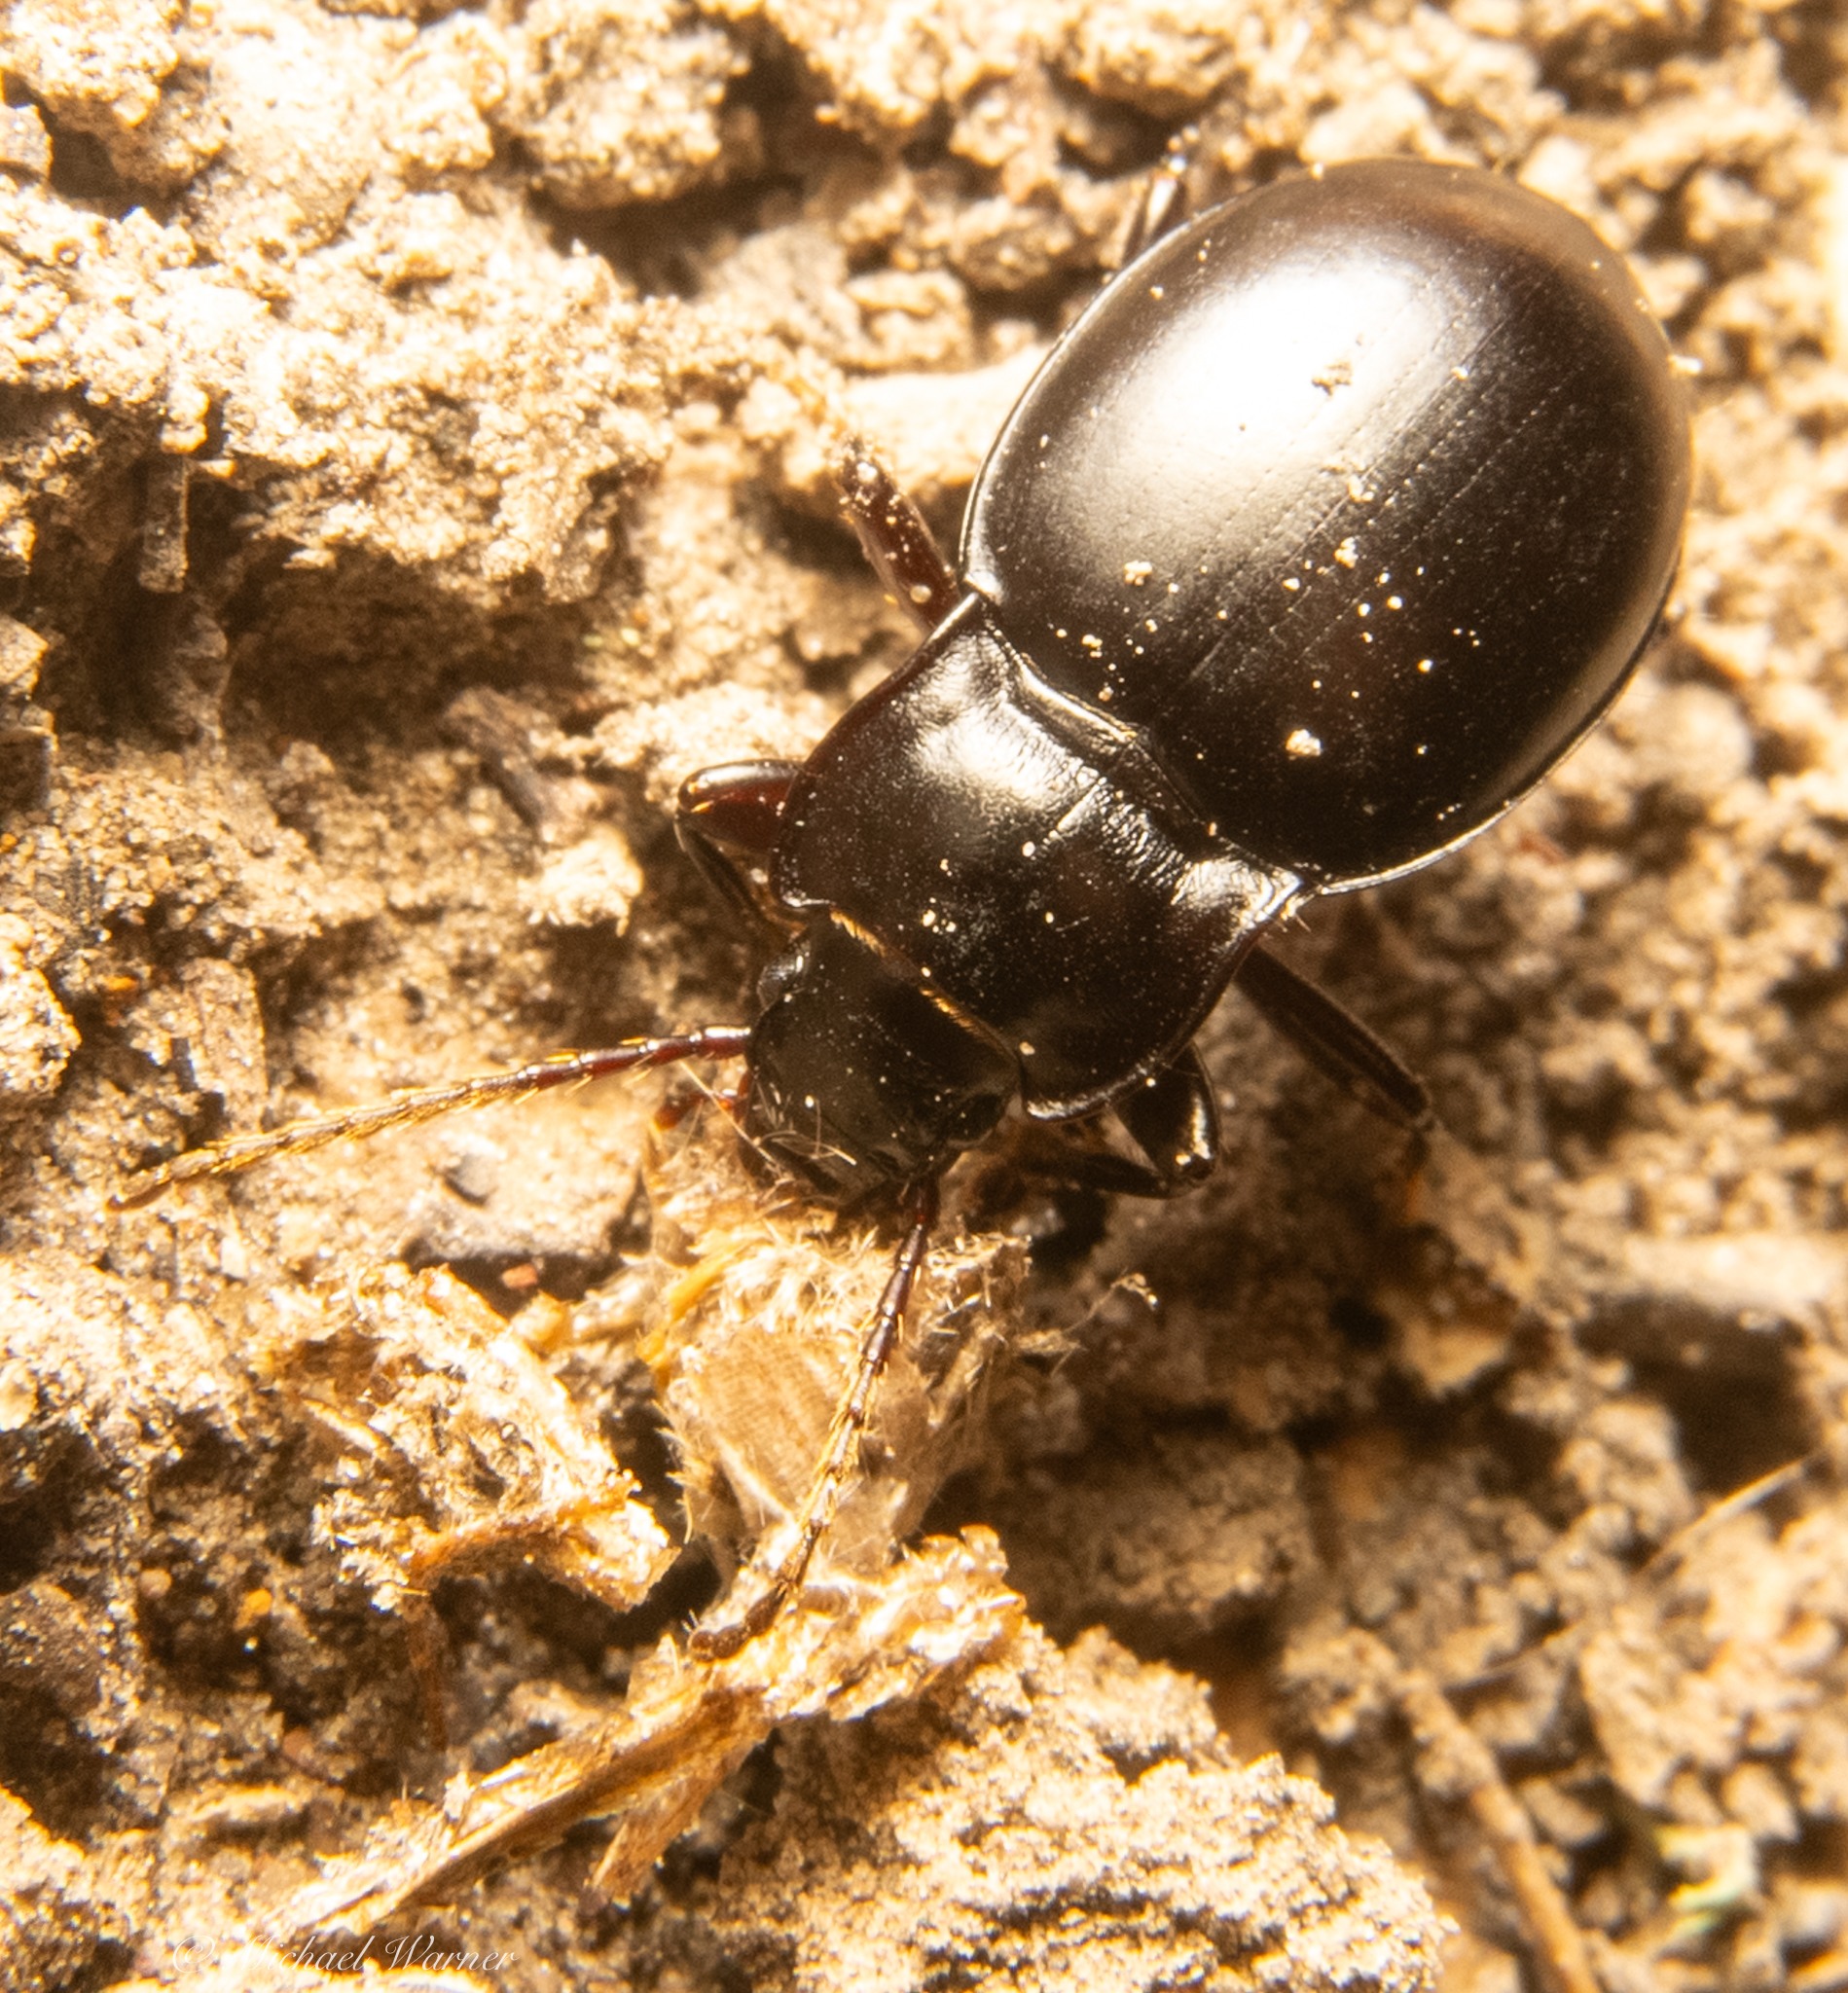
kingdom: Animalia
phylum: Arthropoda
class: Insecta
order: Coleoptera
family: Carabidae
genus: Metrius
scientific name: Metrius contractus
